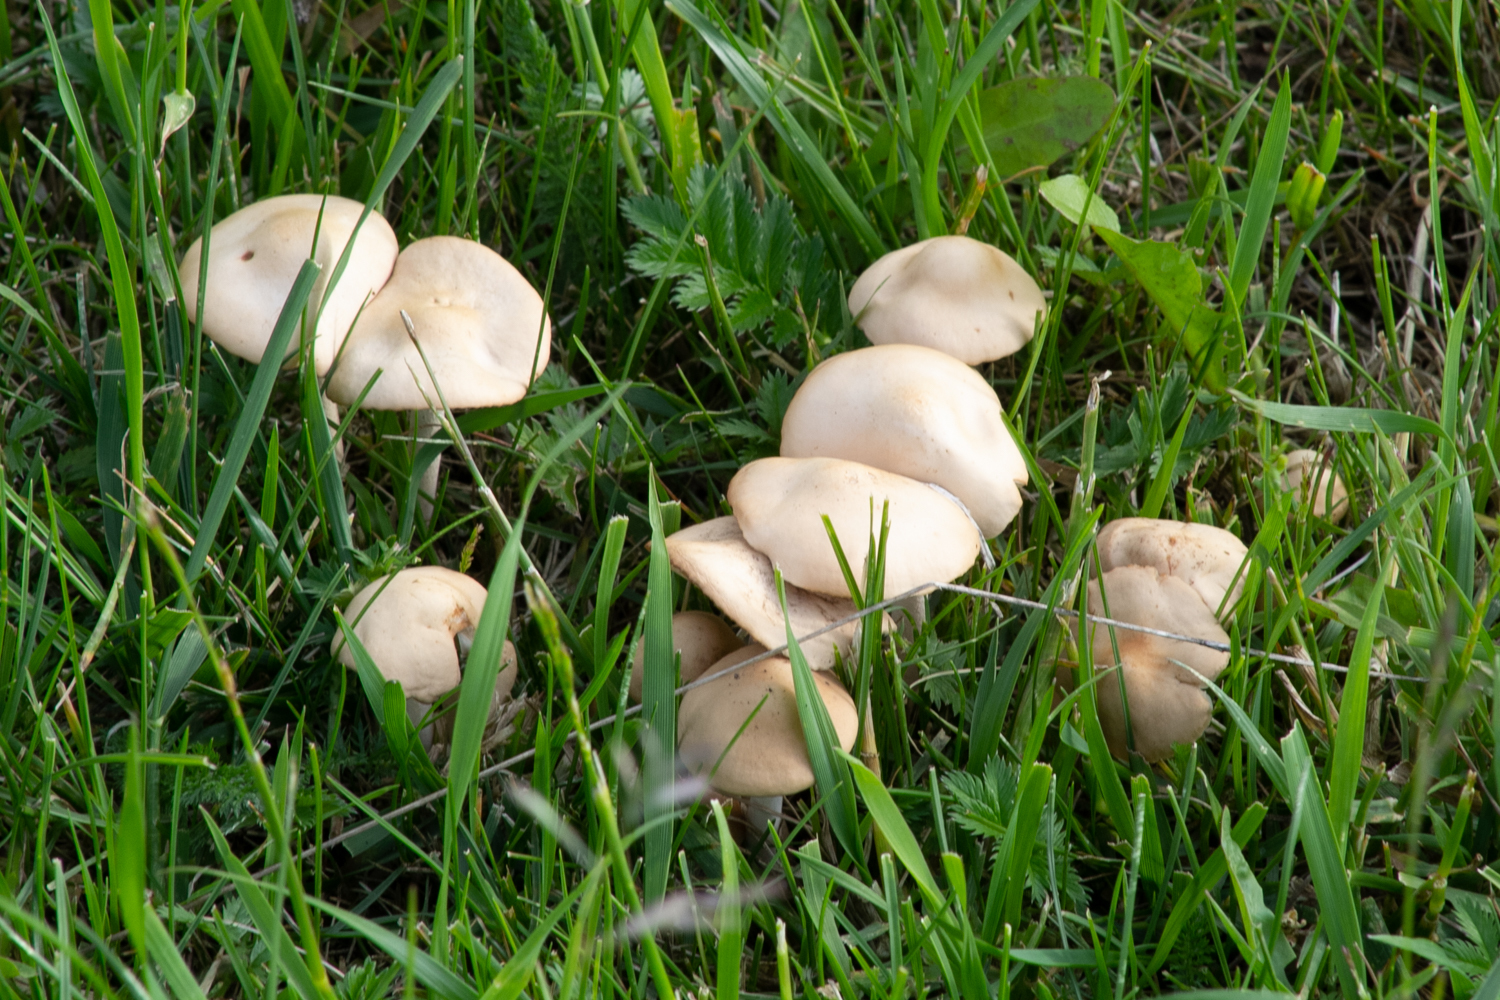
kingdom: Fungi
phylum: Basidiomycota
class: Agaricomycetes
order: Agaricales
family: Marasmiaceae
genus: Marasmius
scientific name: Marasmius oreades
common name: Fairy ring champignon
